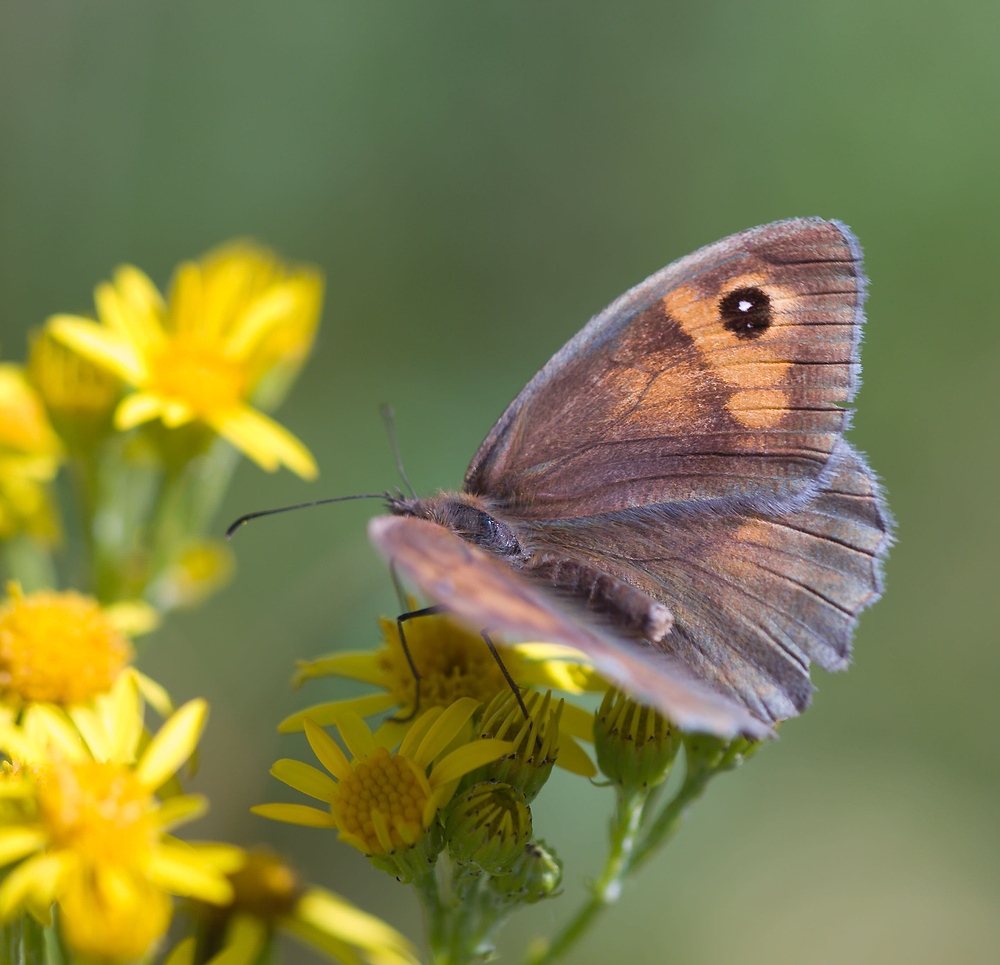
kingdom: Animalia
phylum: Arthropoda
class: Insecta
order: Lepidoptera
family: Nymphalidae
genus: Maniola
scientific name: Maniola jurtina
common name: Meadow brown
